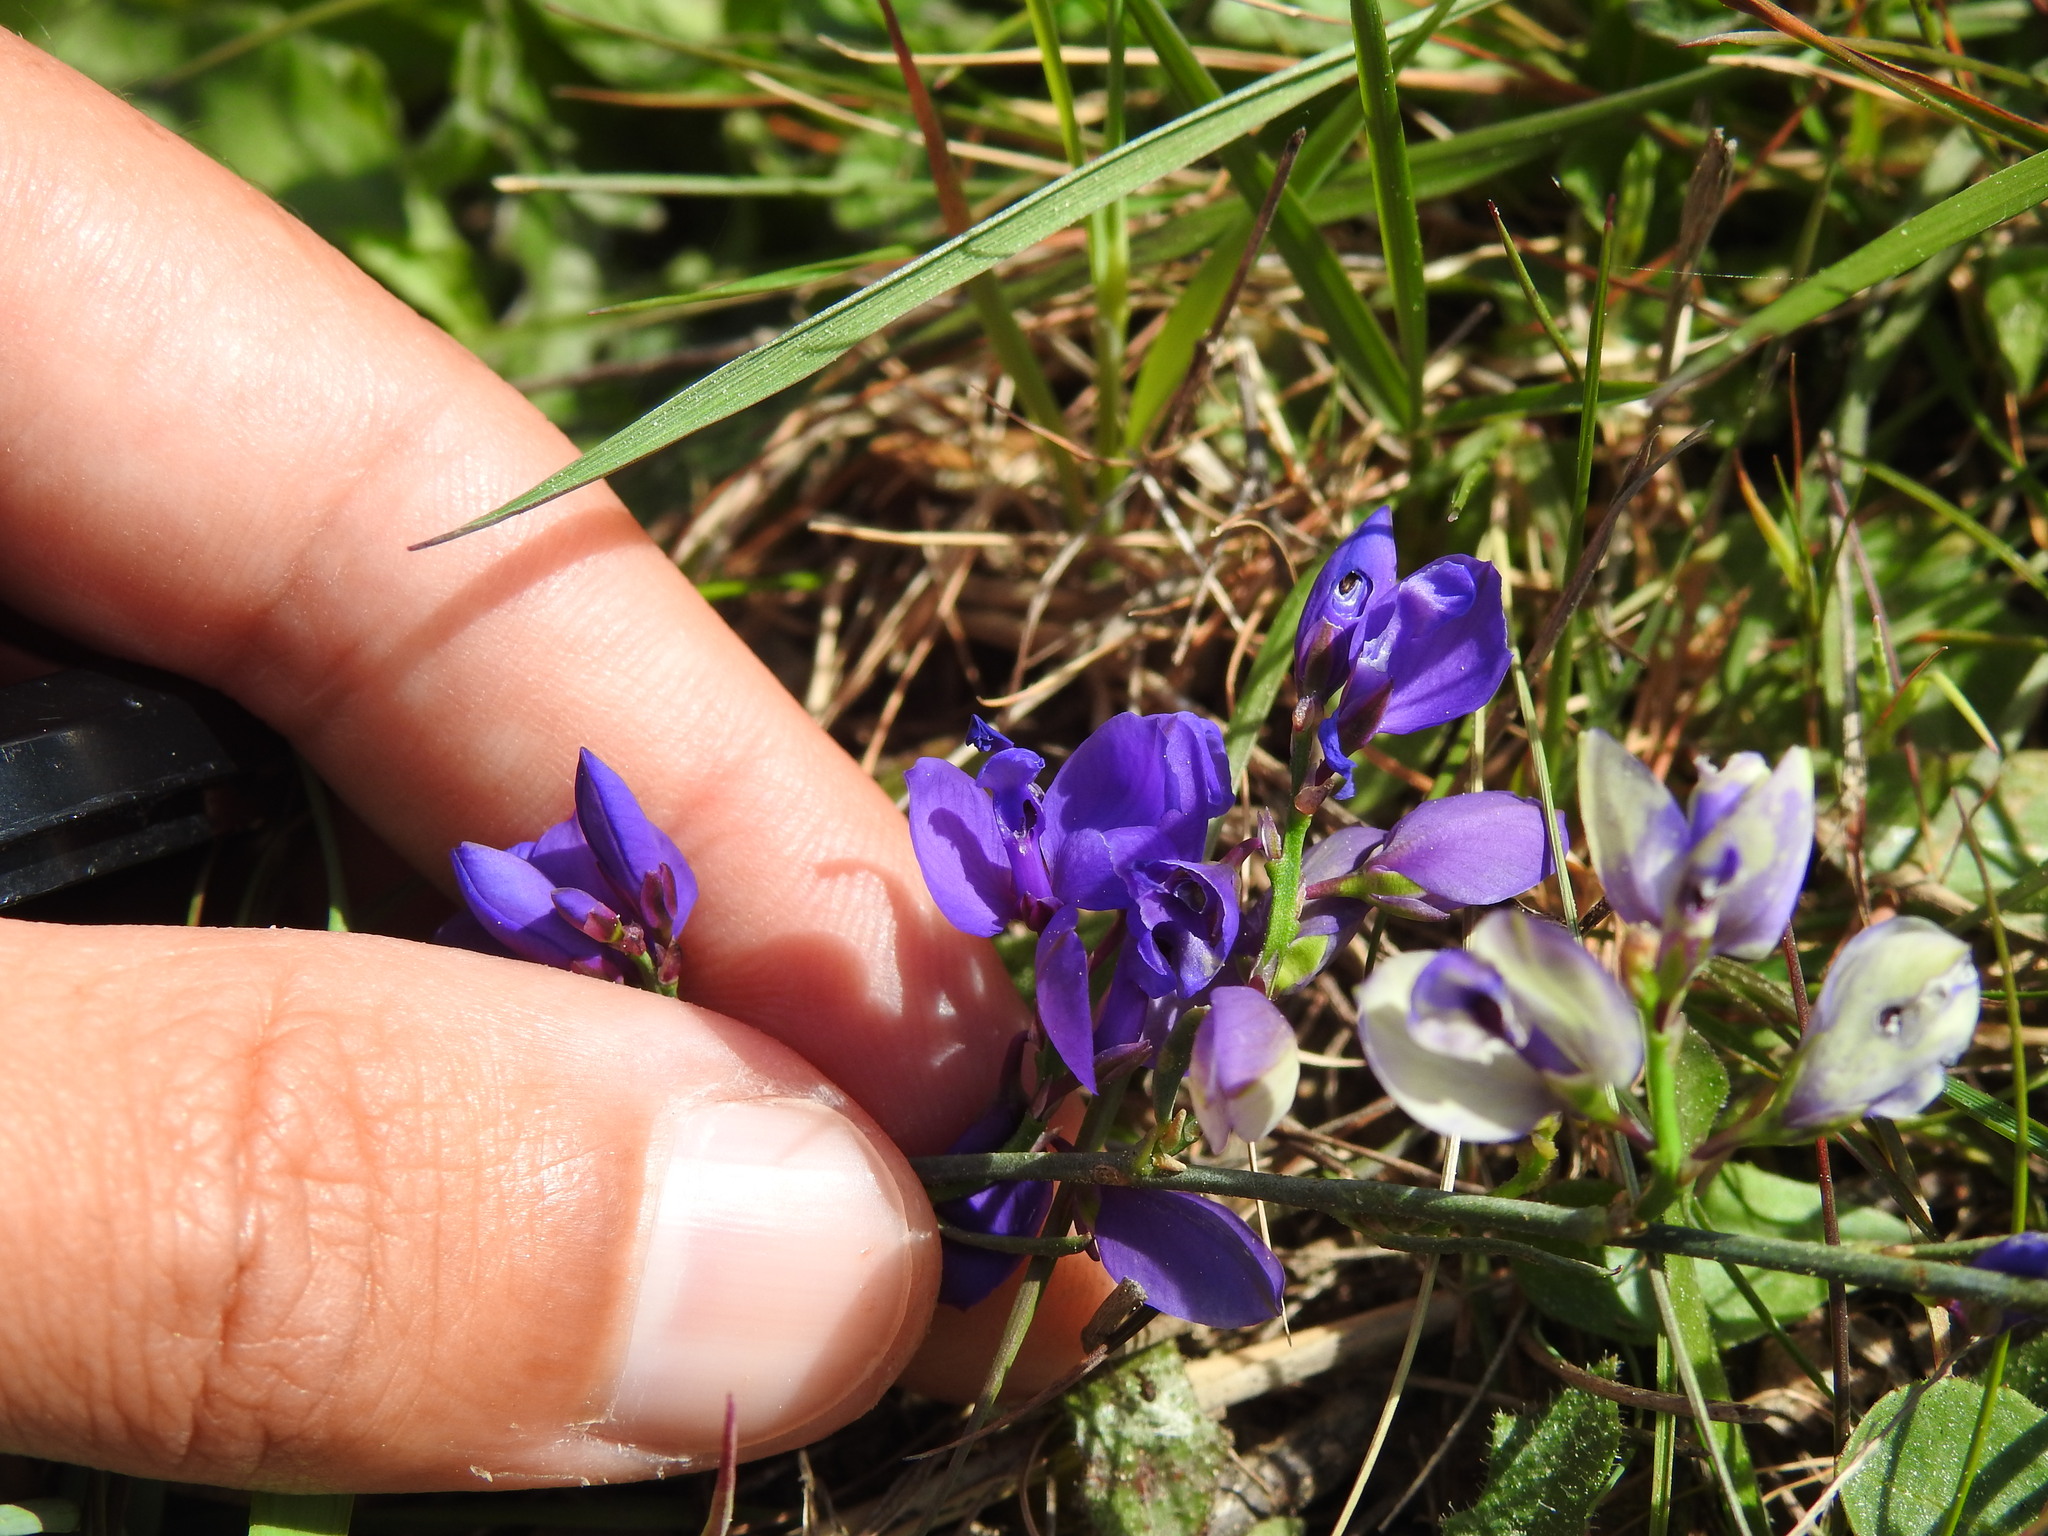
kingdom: Plantae
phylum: Tracheophyta
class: Magnoliopsida
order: Fabales
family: Polygalaceae
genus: Polygala
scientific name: Polygala microphylla
